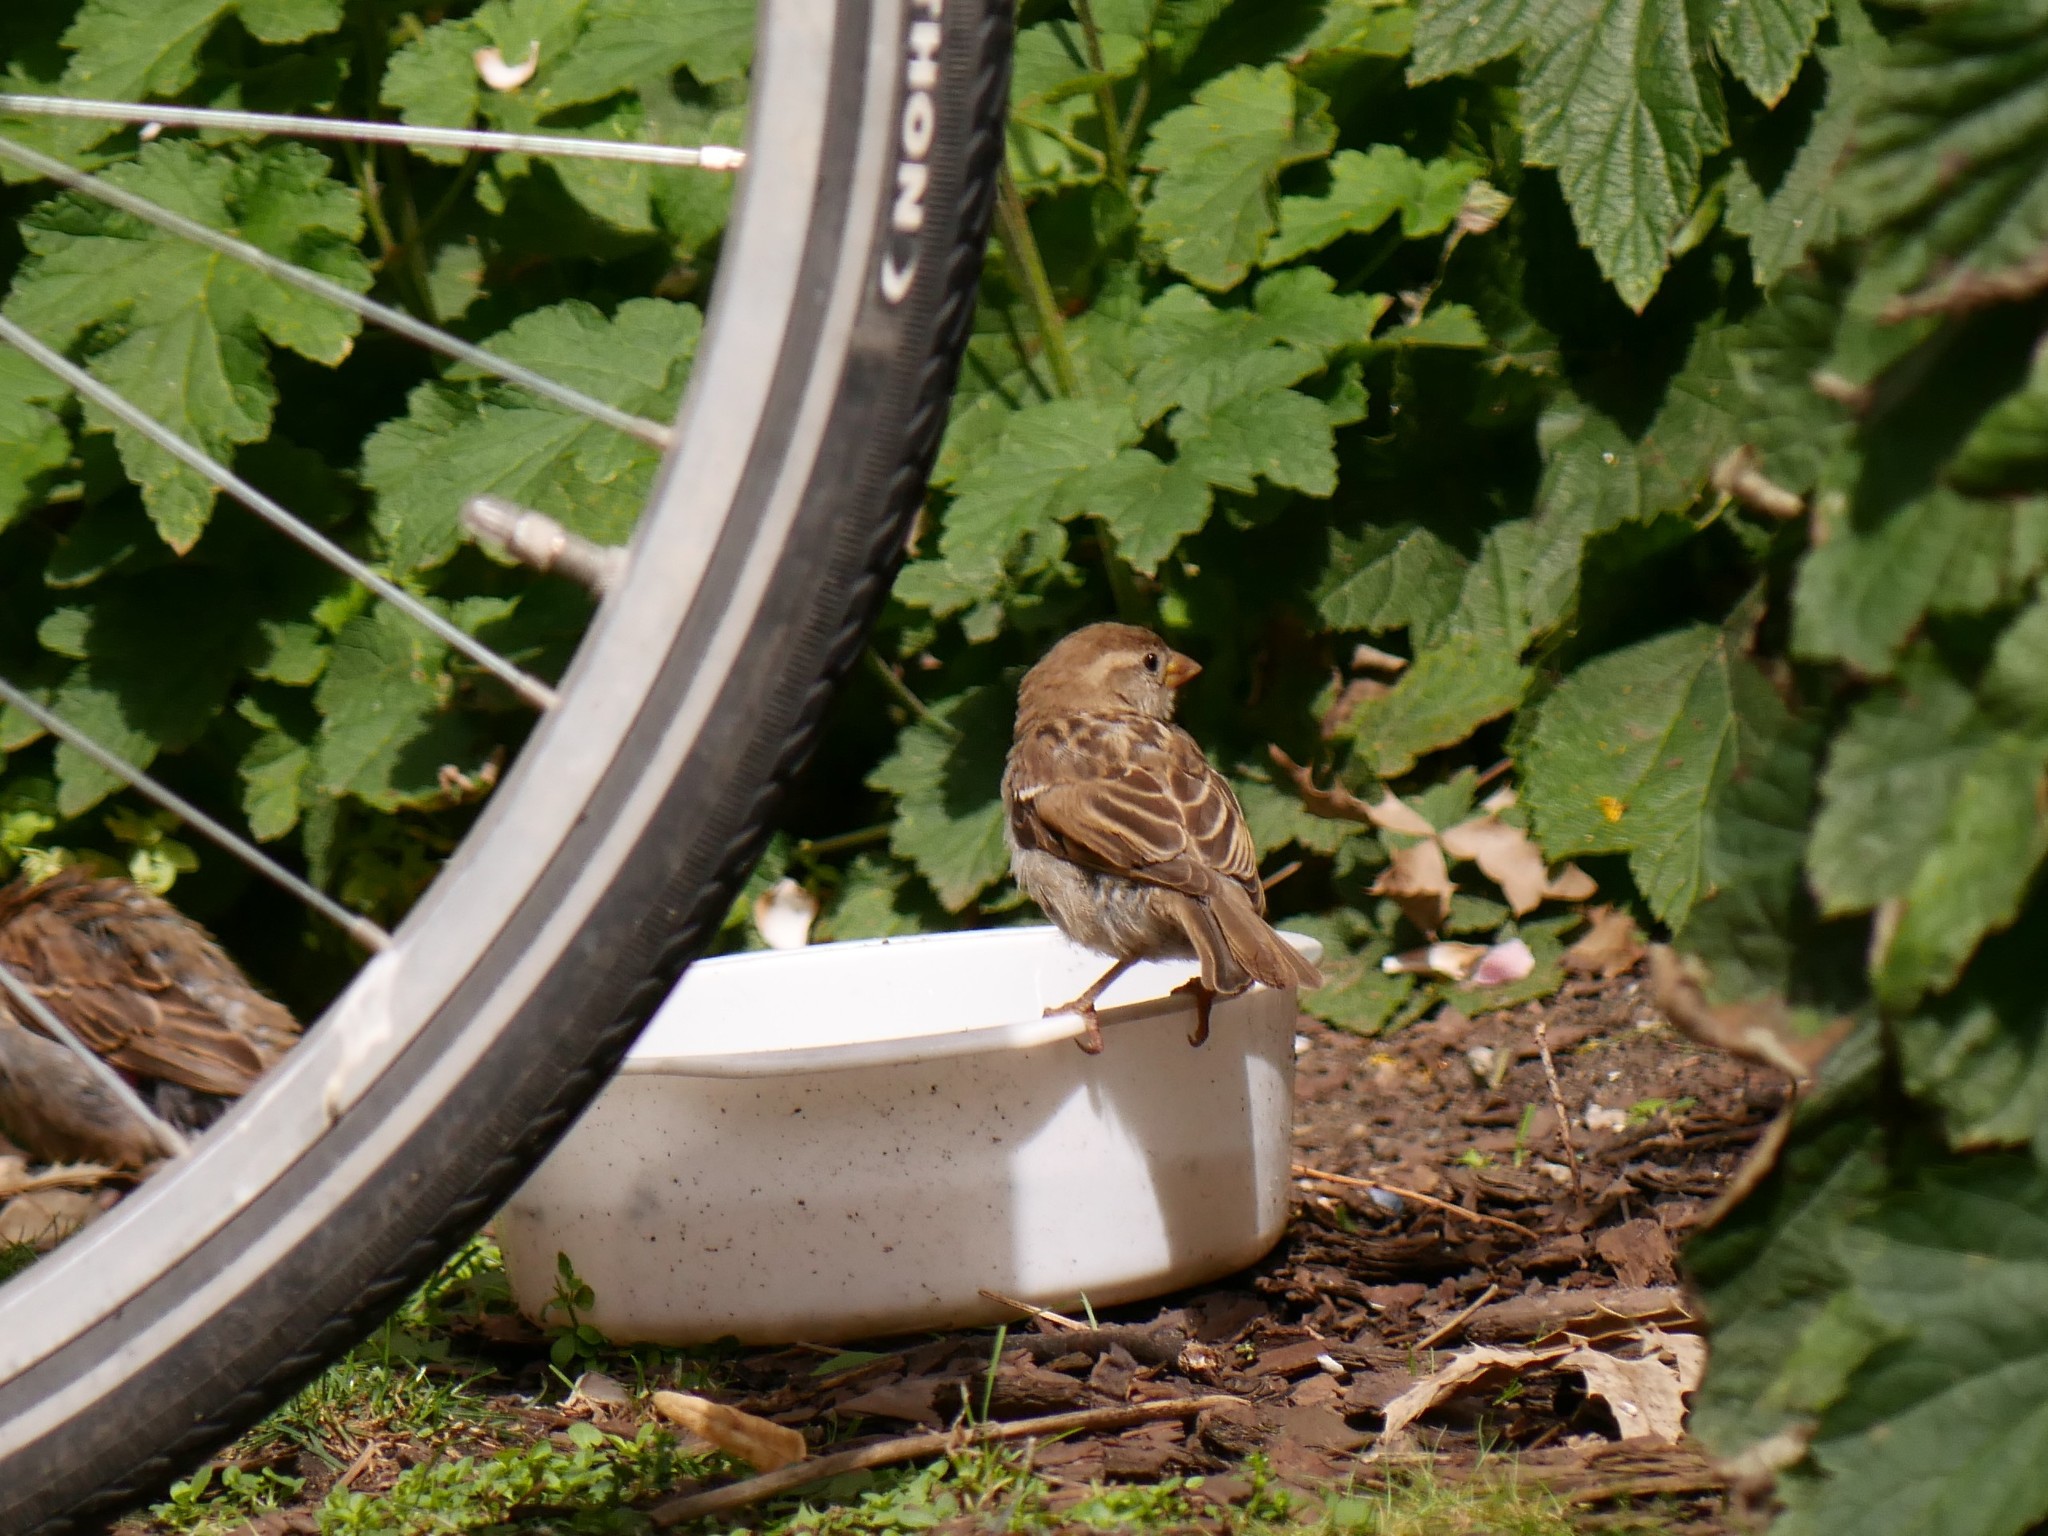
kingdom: Animalia
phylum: Chordata
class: Aves
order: Passeriformes
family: Passeridae
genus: Passer
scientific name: Passer domesticus
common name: House sparrow
